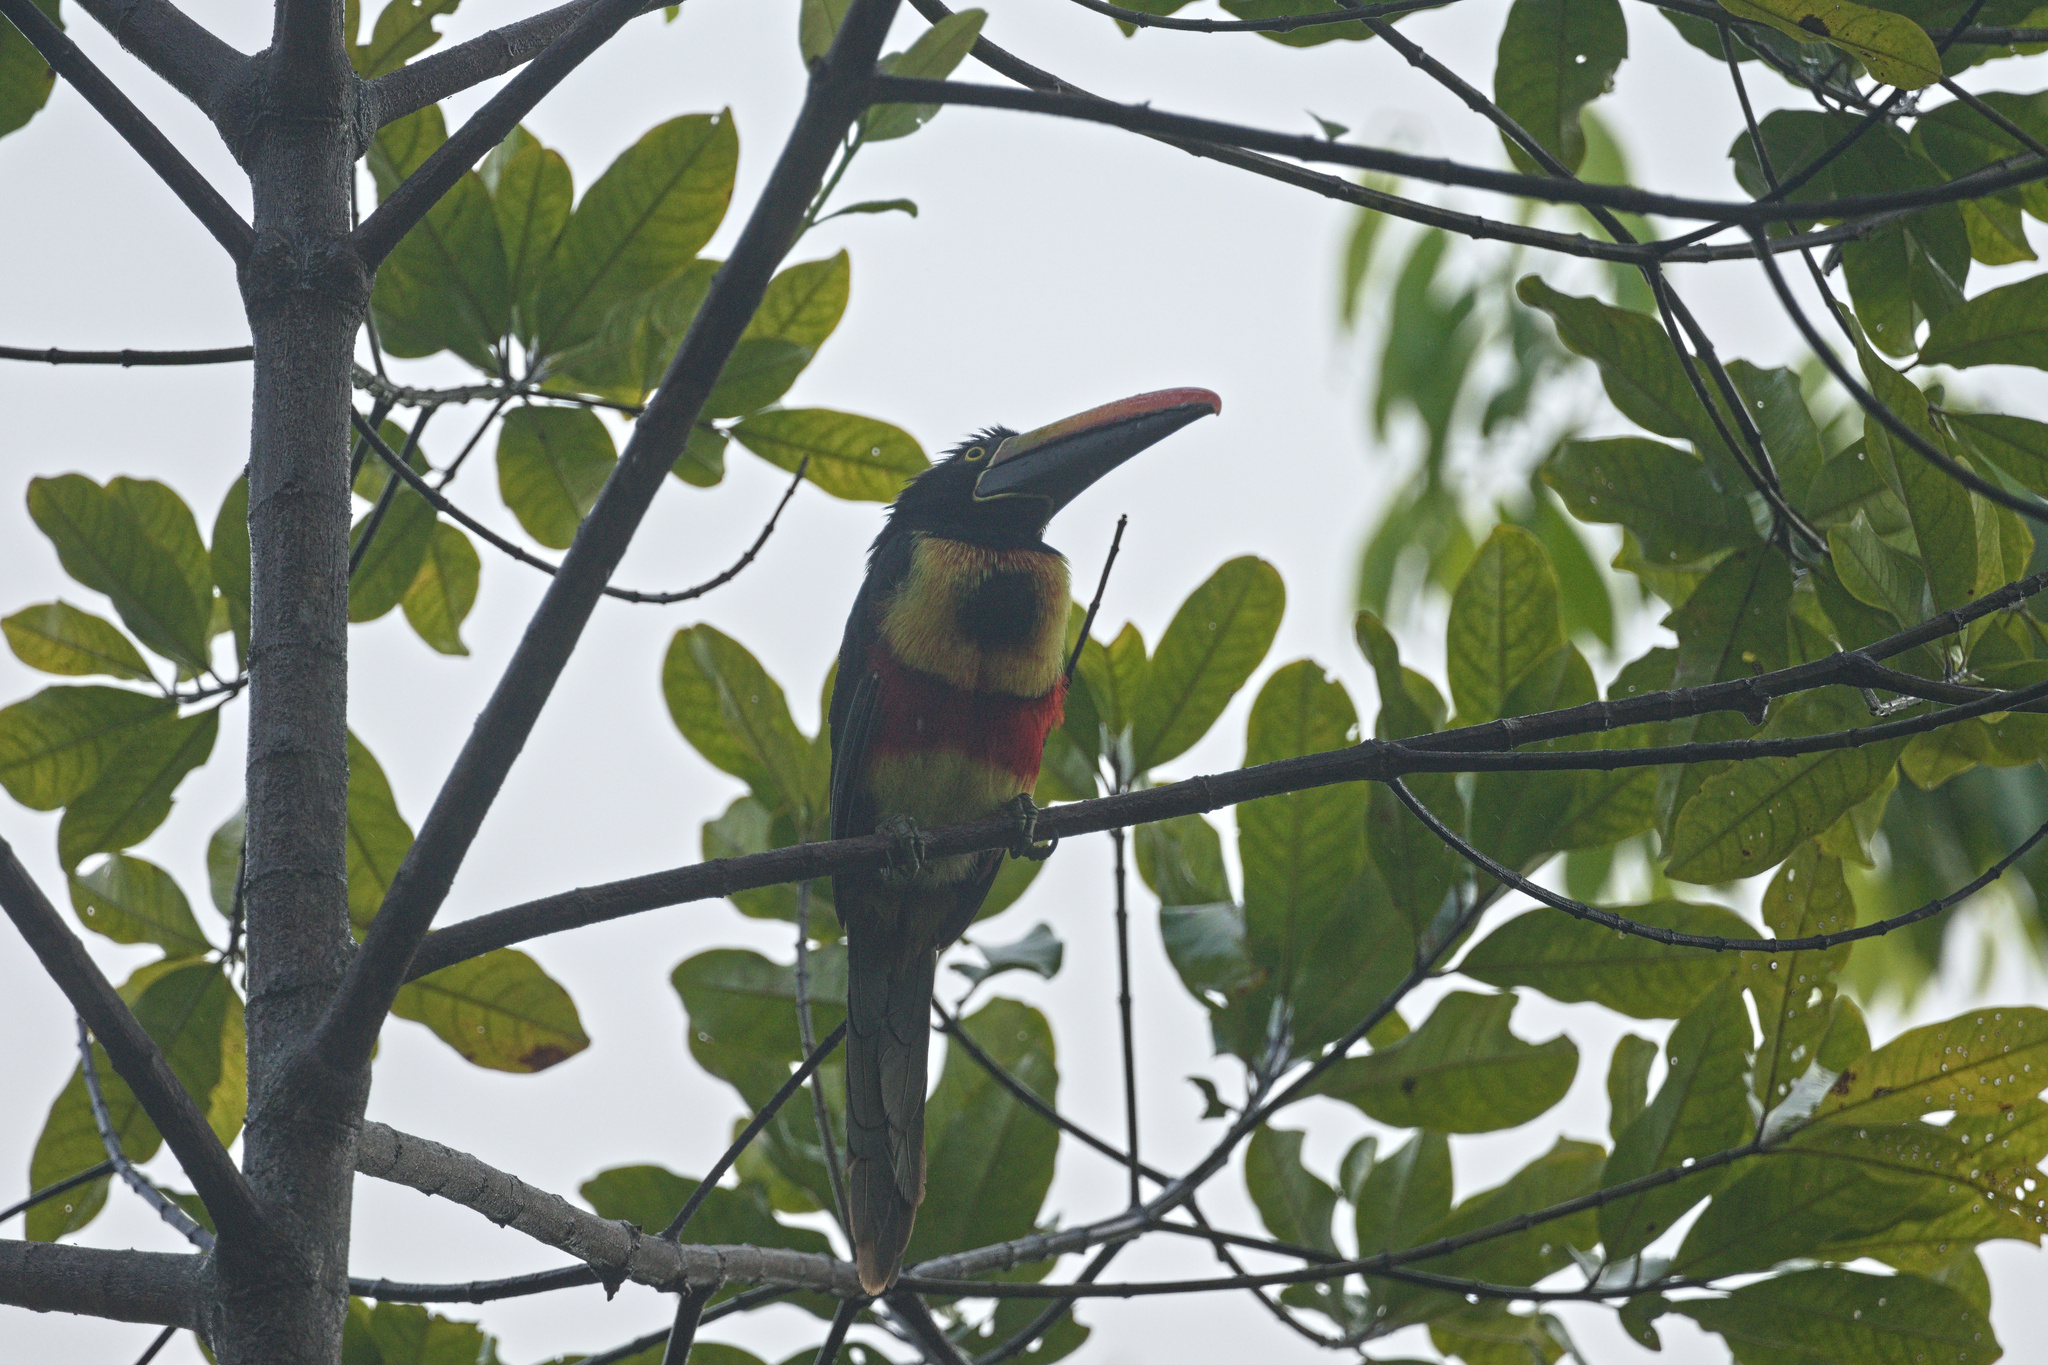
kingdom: Animalia
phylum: Chordata
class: Aves
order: Piciformes
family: Ramphastidae
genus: Pteroglossus
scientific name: Pteroglossus frantzii
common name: Fiery-billed aracari
